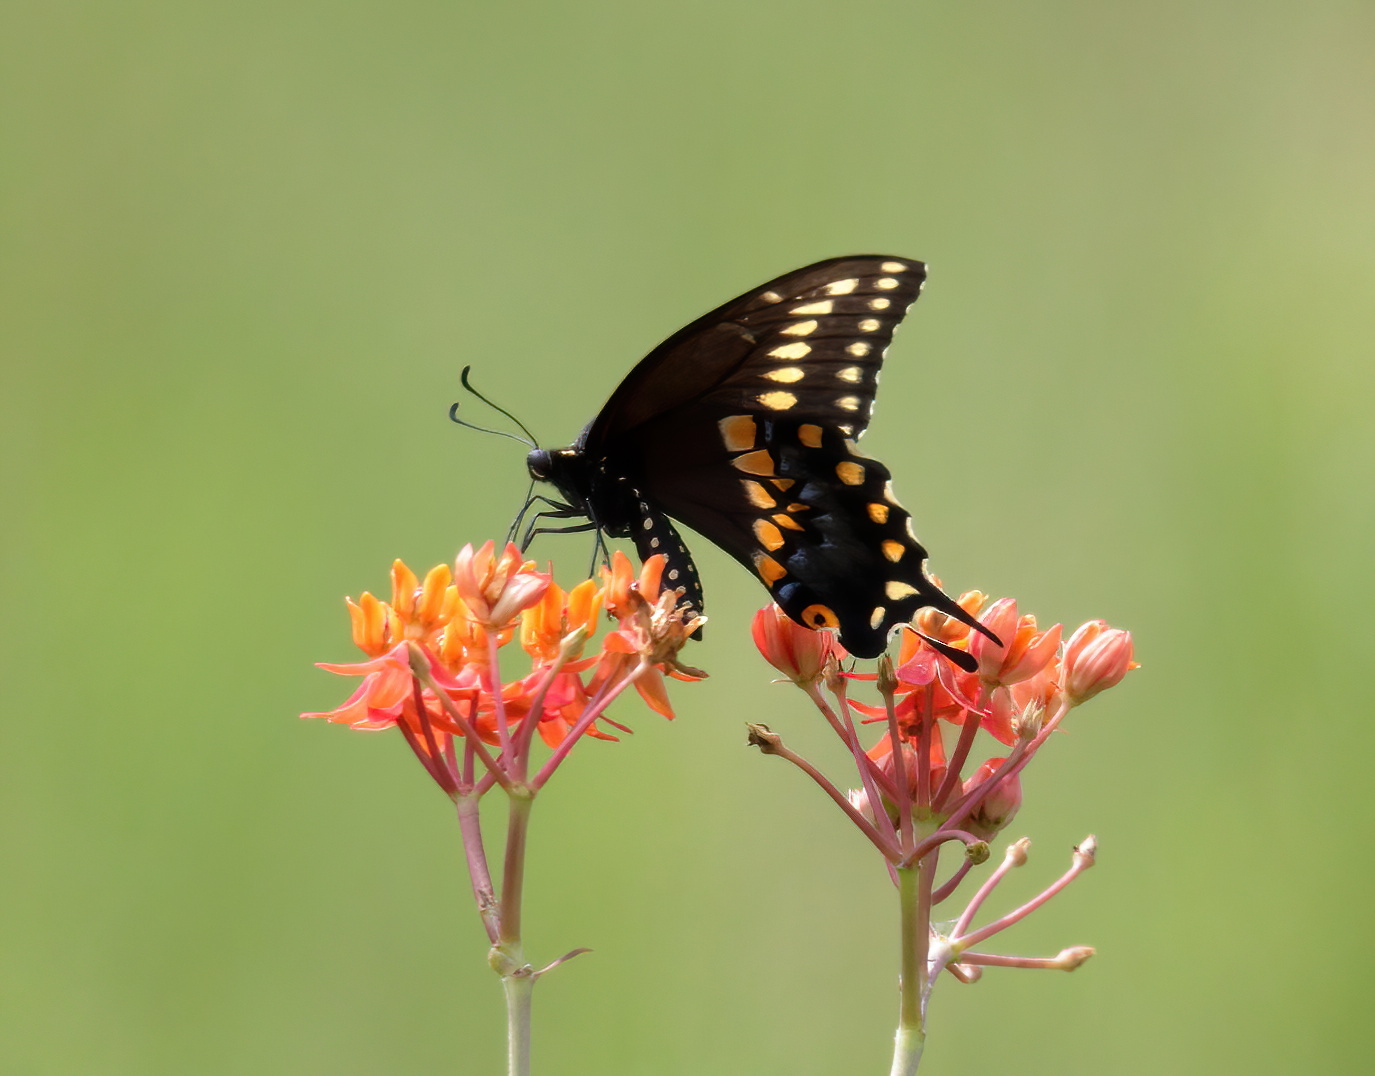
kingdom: Animalia
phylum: Arthropoda
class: Insecta
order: Lepidoptera
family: Papilionidae
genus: Papilio
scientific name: Papilio polyxenes
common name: Black swallowtail
